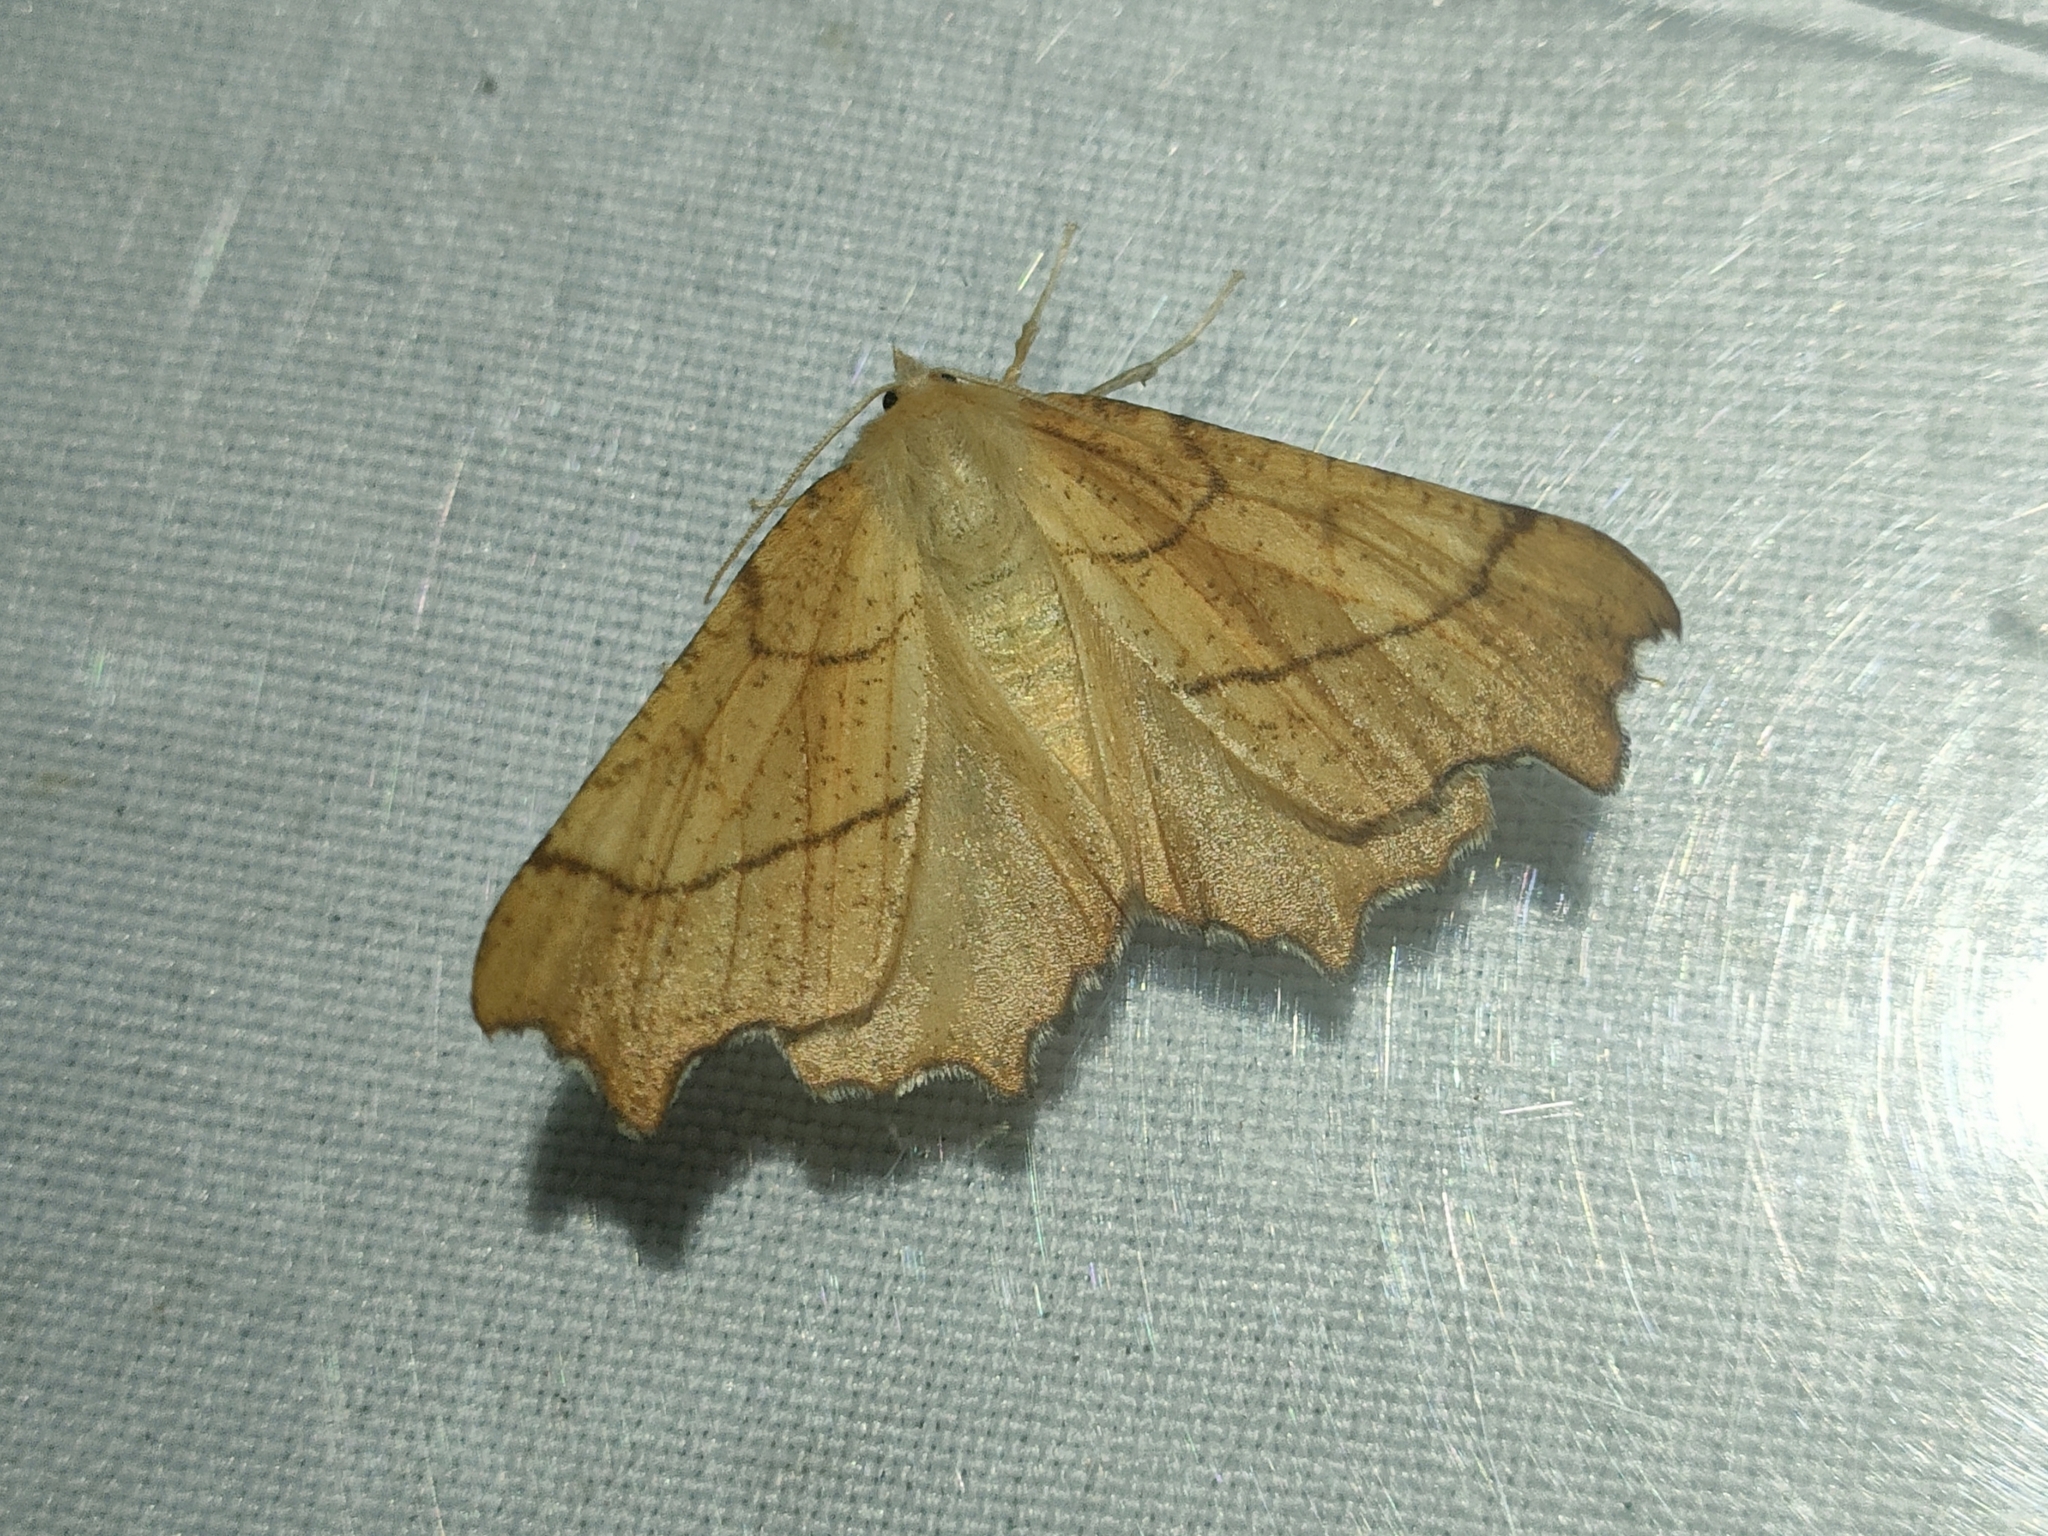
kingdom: Animalia
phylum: Arthropoda
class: Insecta
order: Lepidoptera
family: Geometridae
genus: Ennomos
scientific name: Ennomos quercinaria
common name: August thorn
